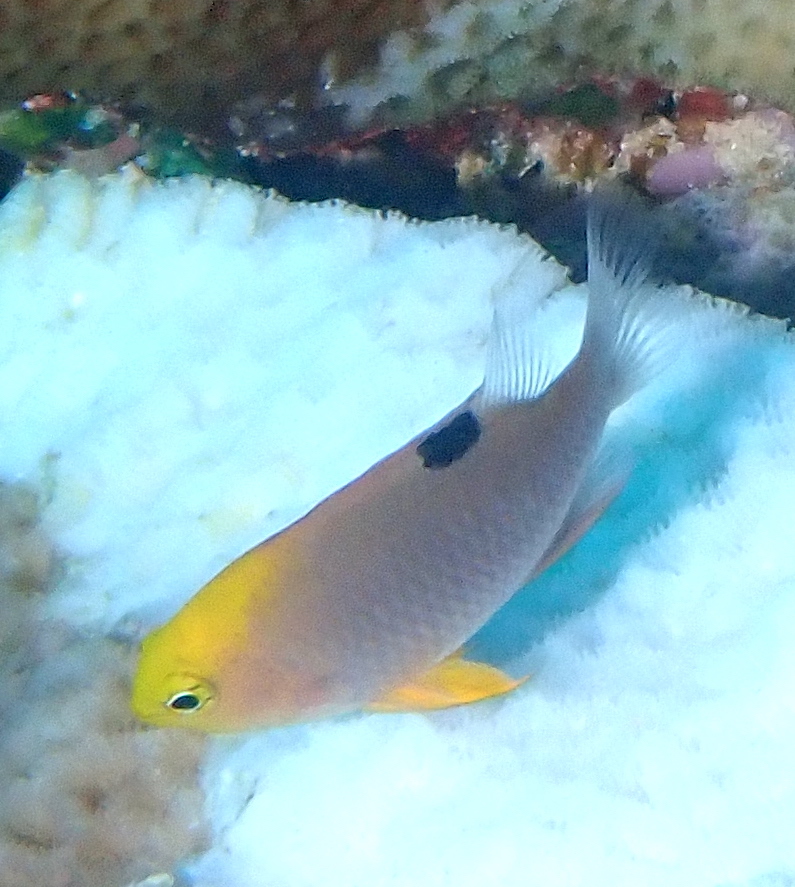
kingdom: Animalia
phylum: Chordata
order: Perciformes
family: Pomacentridae
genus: Chrysiptera
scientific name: Chrysiptera talboti
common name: Talbot's demoiselle
